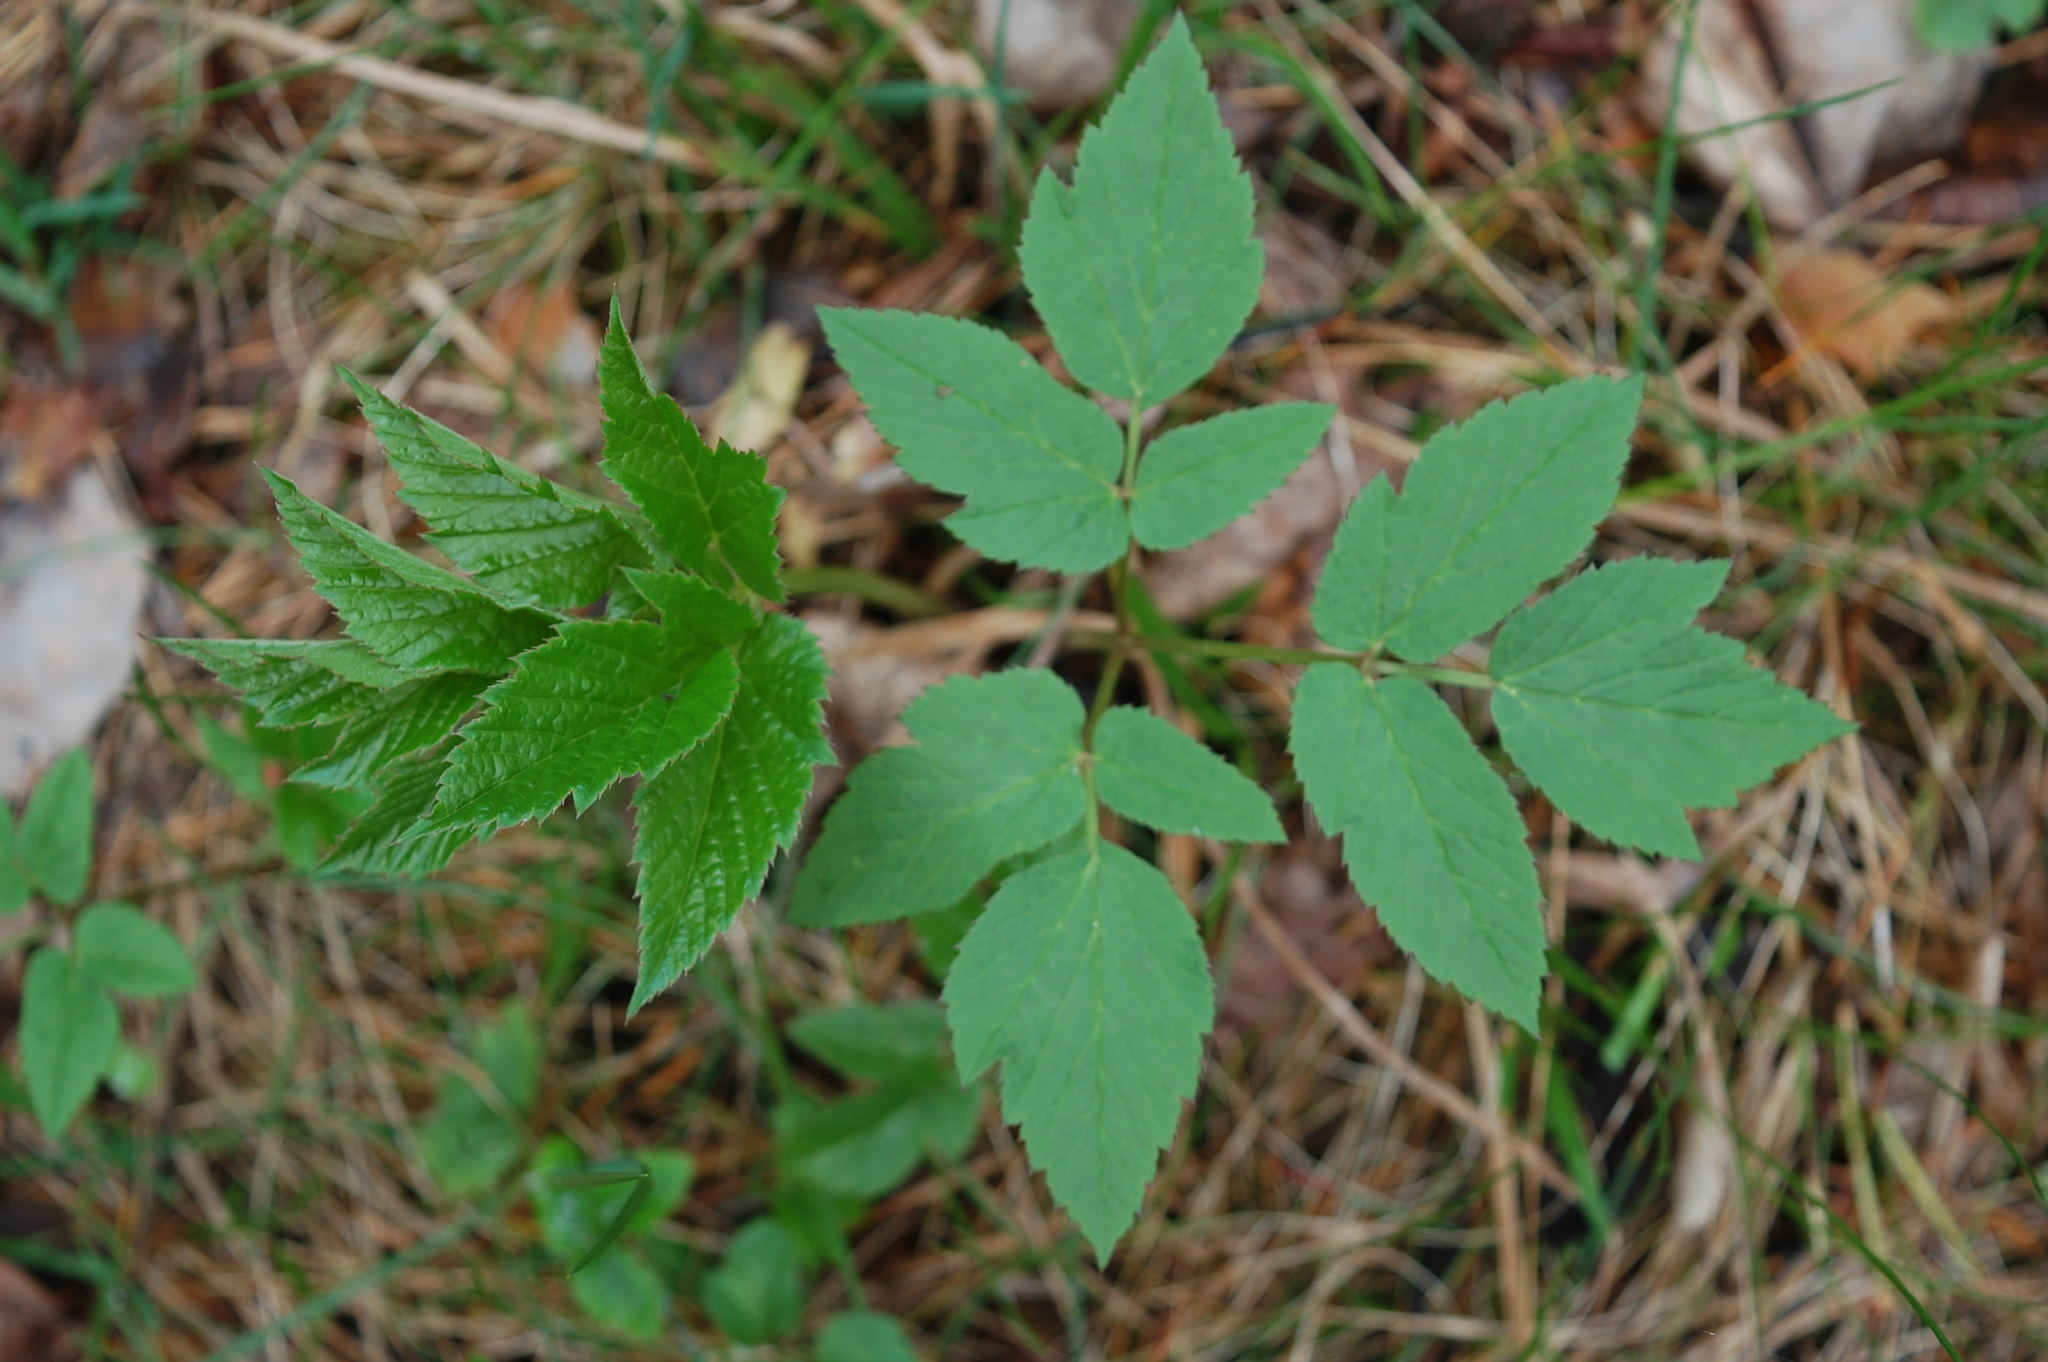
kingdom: Plantae
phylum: Tracheophyta
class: Magnoliopsida
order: Apiales
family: Apiaceae
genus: Aegopodium
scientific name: Aegopodium podagraria
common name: Ground-elder
